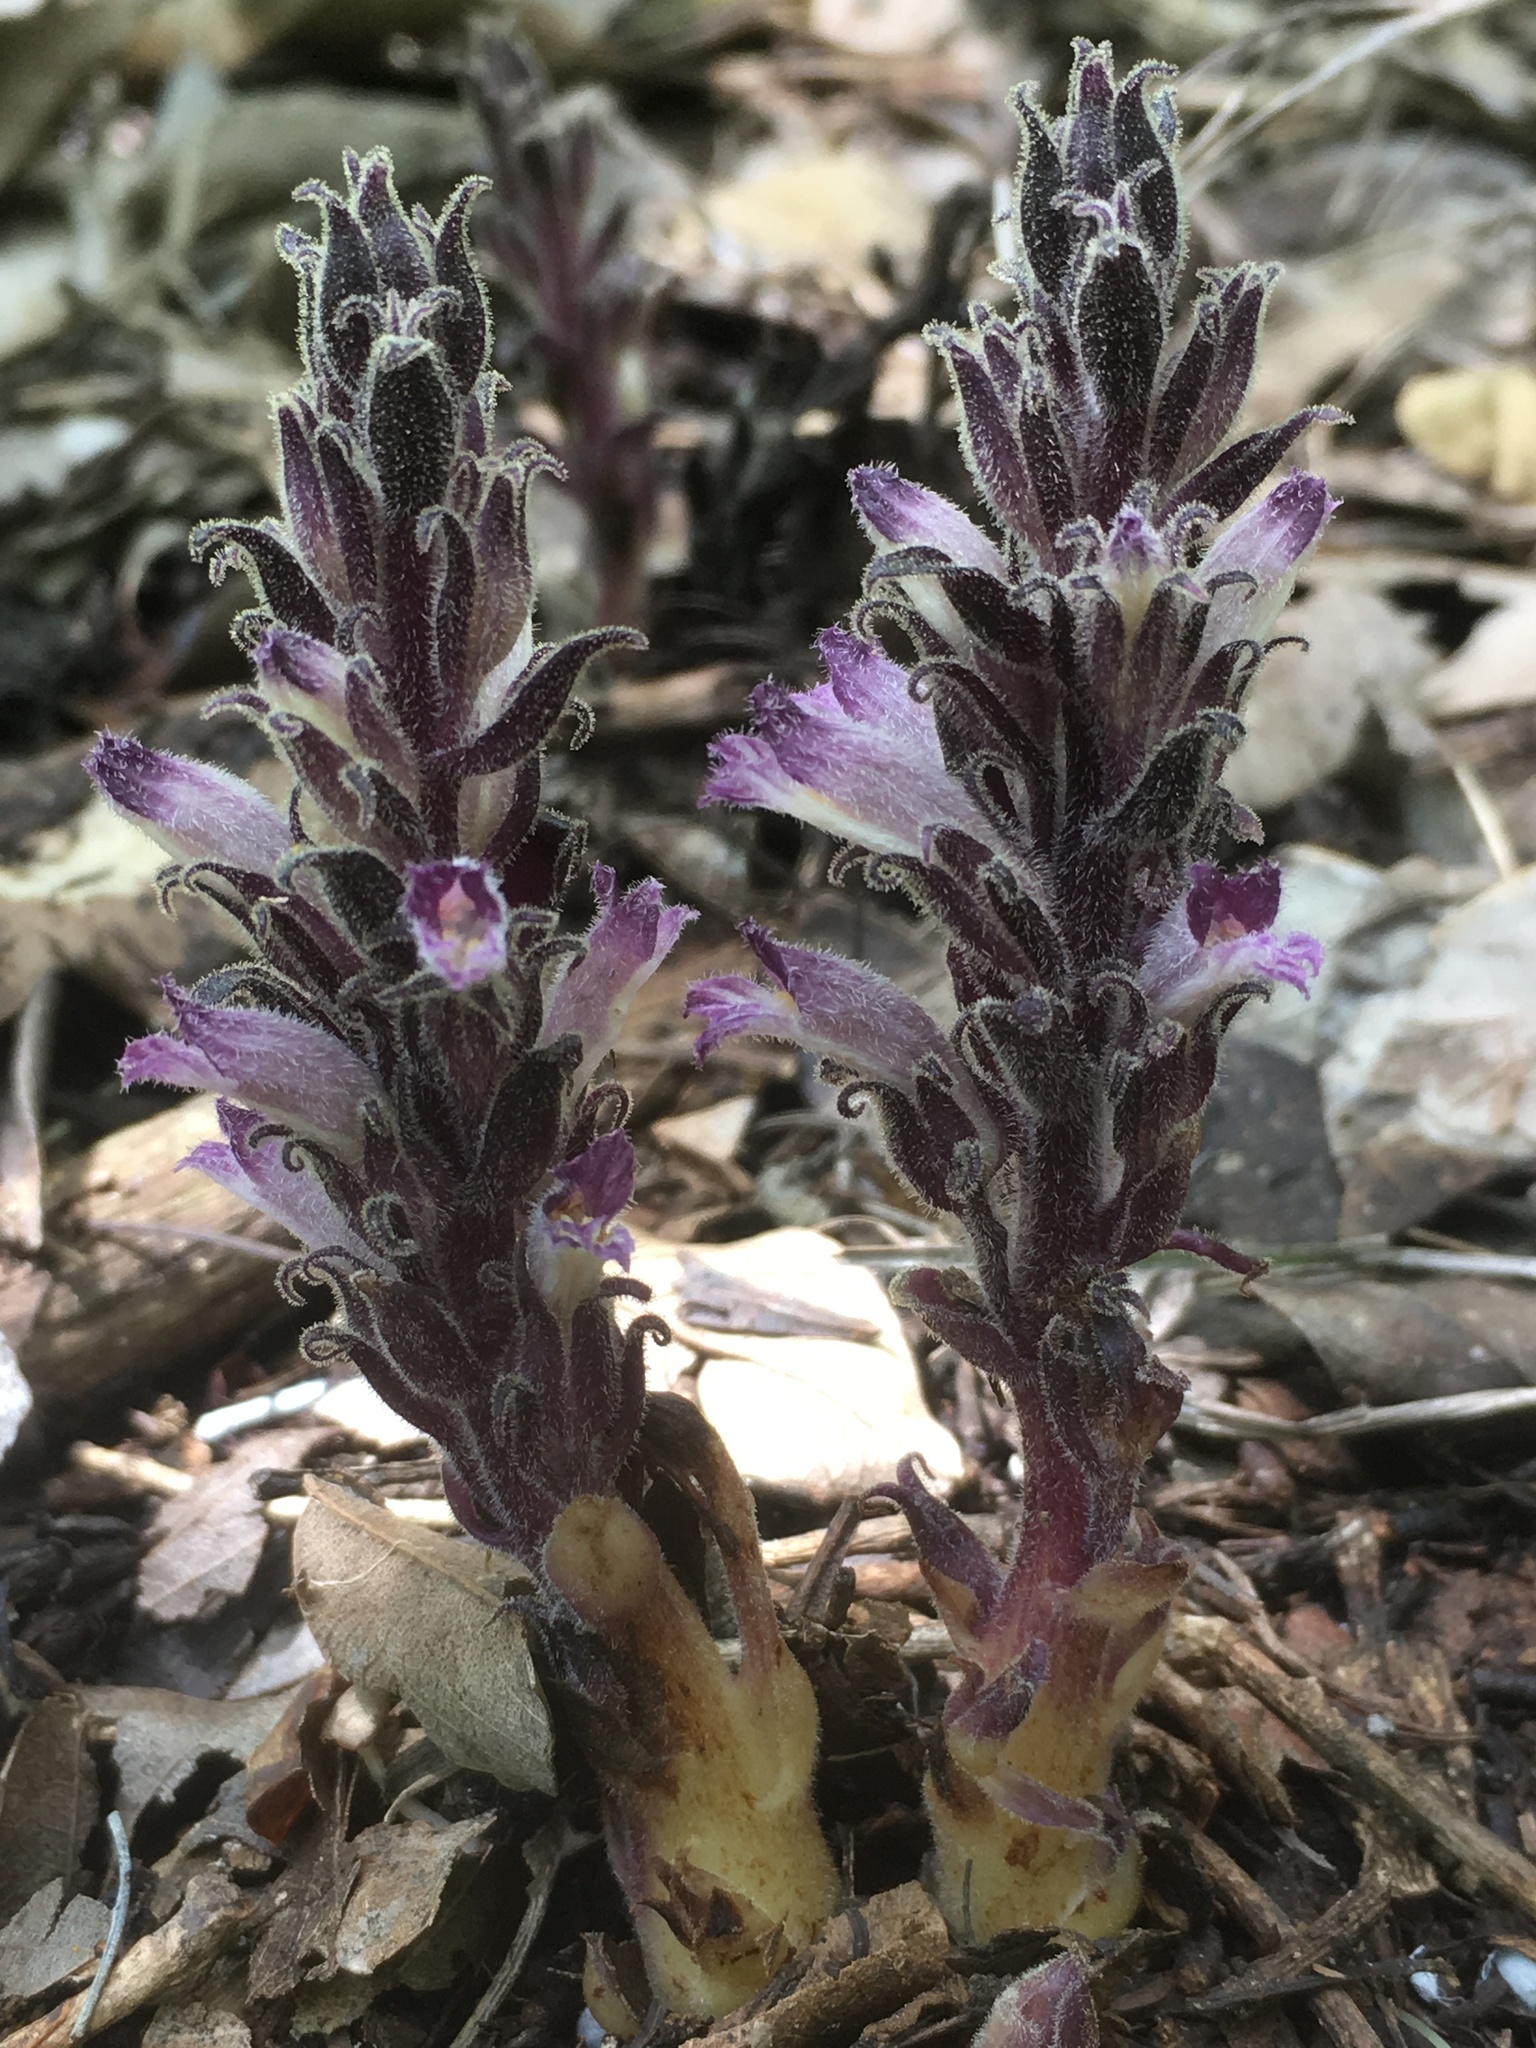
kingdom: Plantae
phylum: Tracheophyta
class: Magnoliopsida
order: Lamiales
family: Orobanchaceae
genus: Aphyllon
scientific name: Aphyllon castilloi
